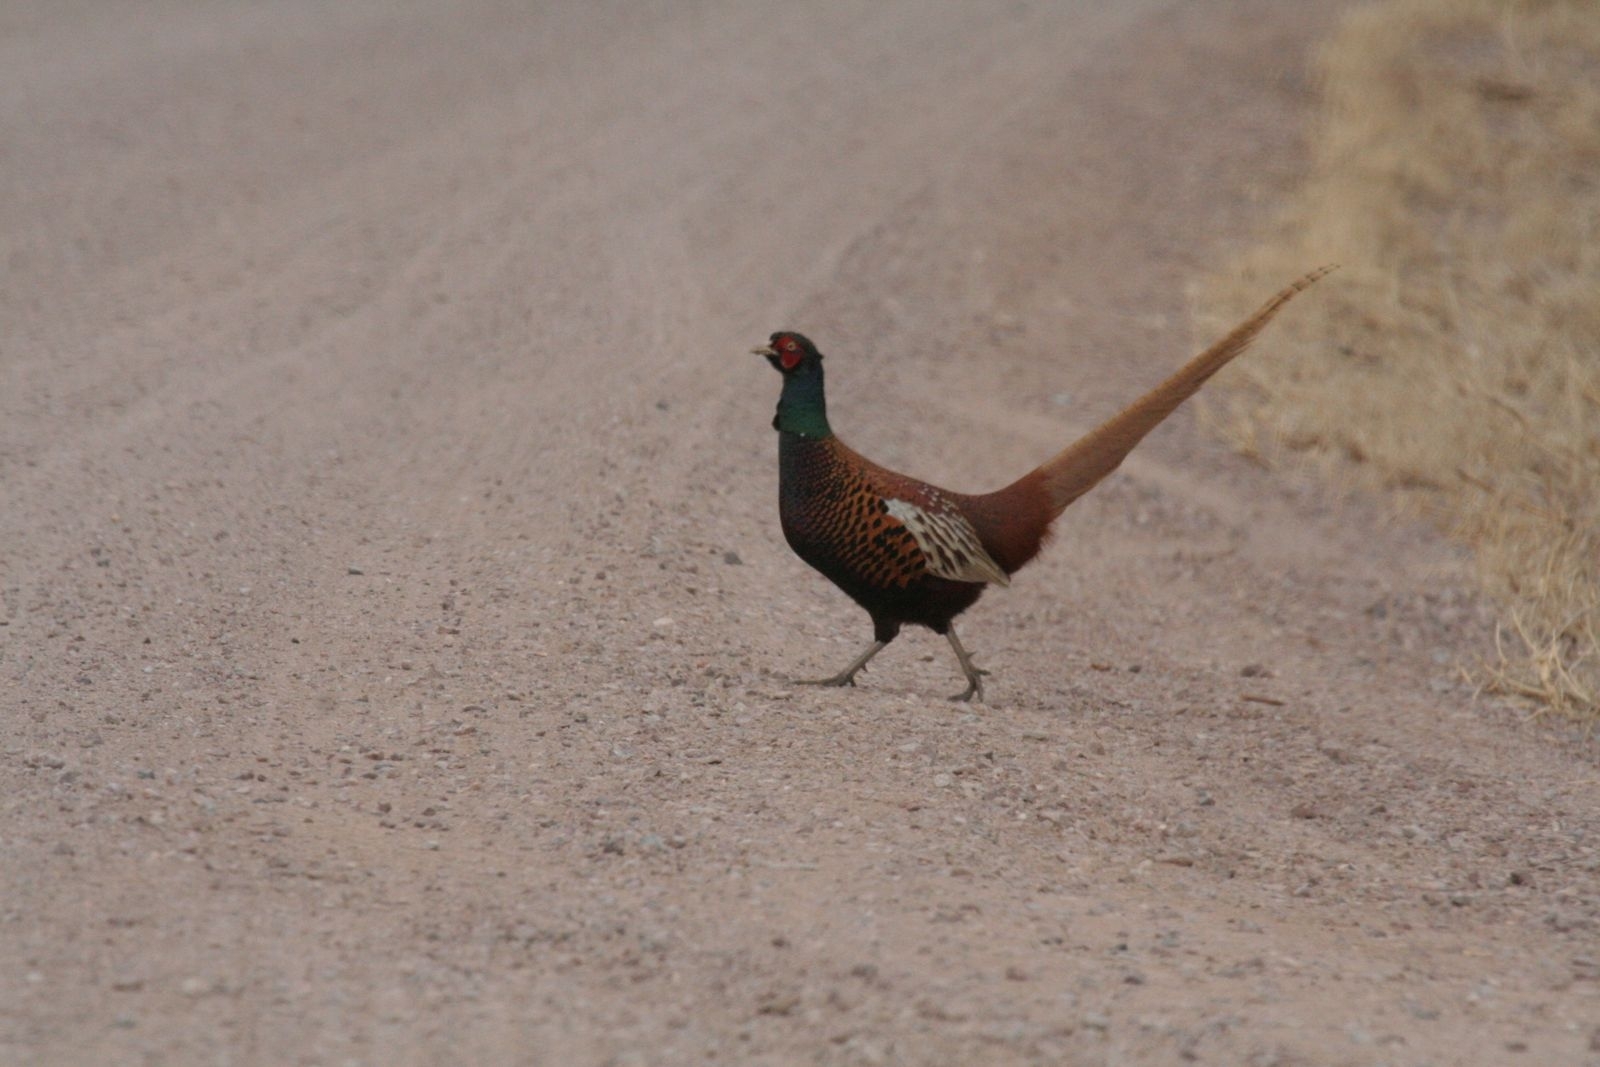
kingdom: Animalia
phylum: Chordata
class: Aves
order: Galliformes
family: Phasianidae
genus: Phasianus
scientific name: Phasianus colchicus
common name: Common pheasant
